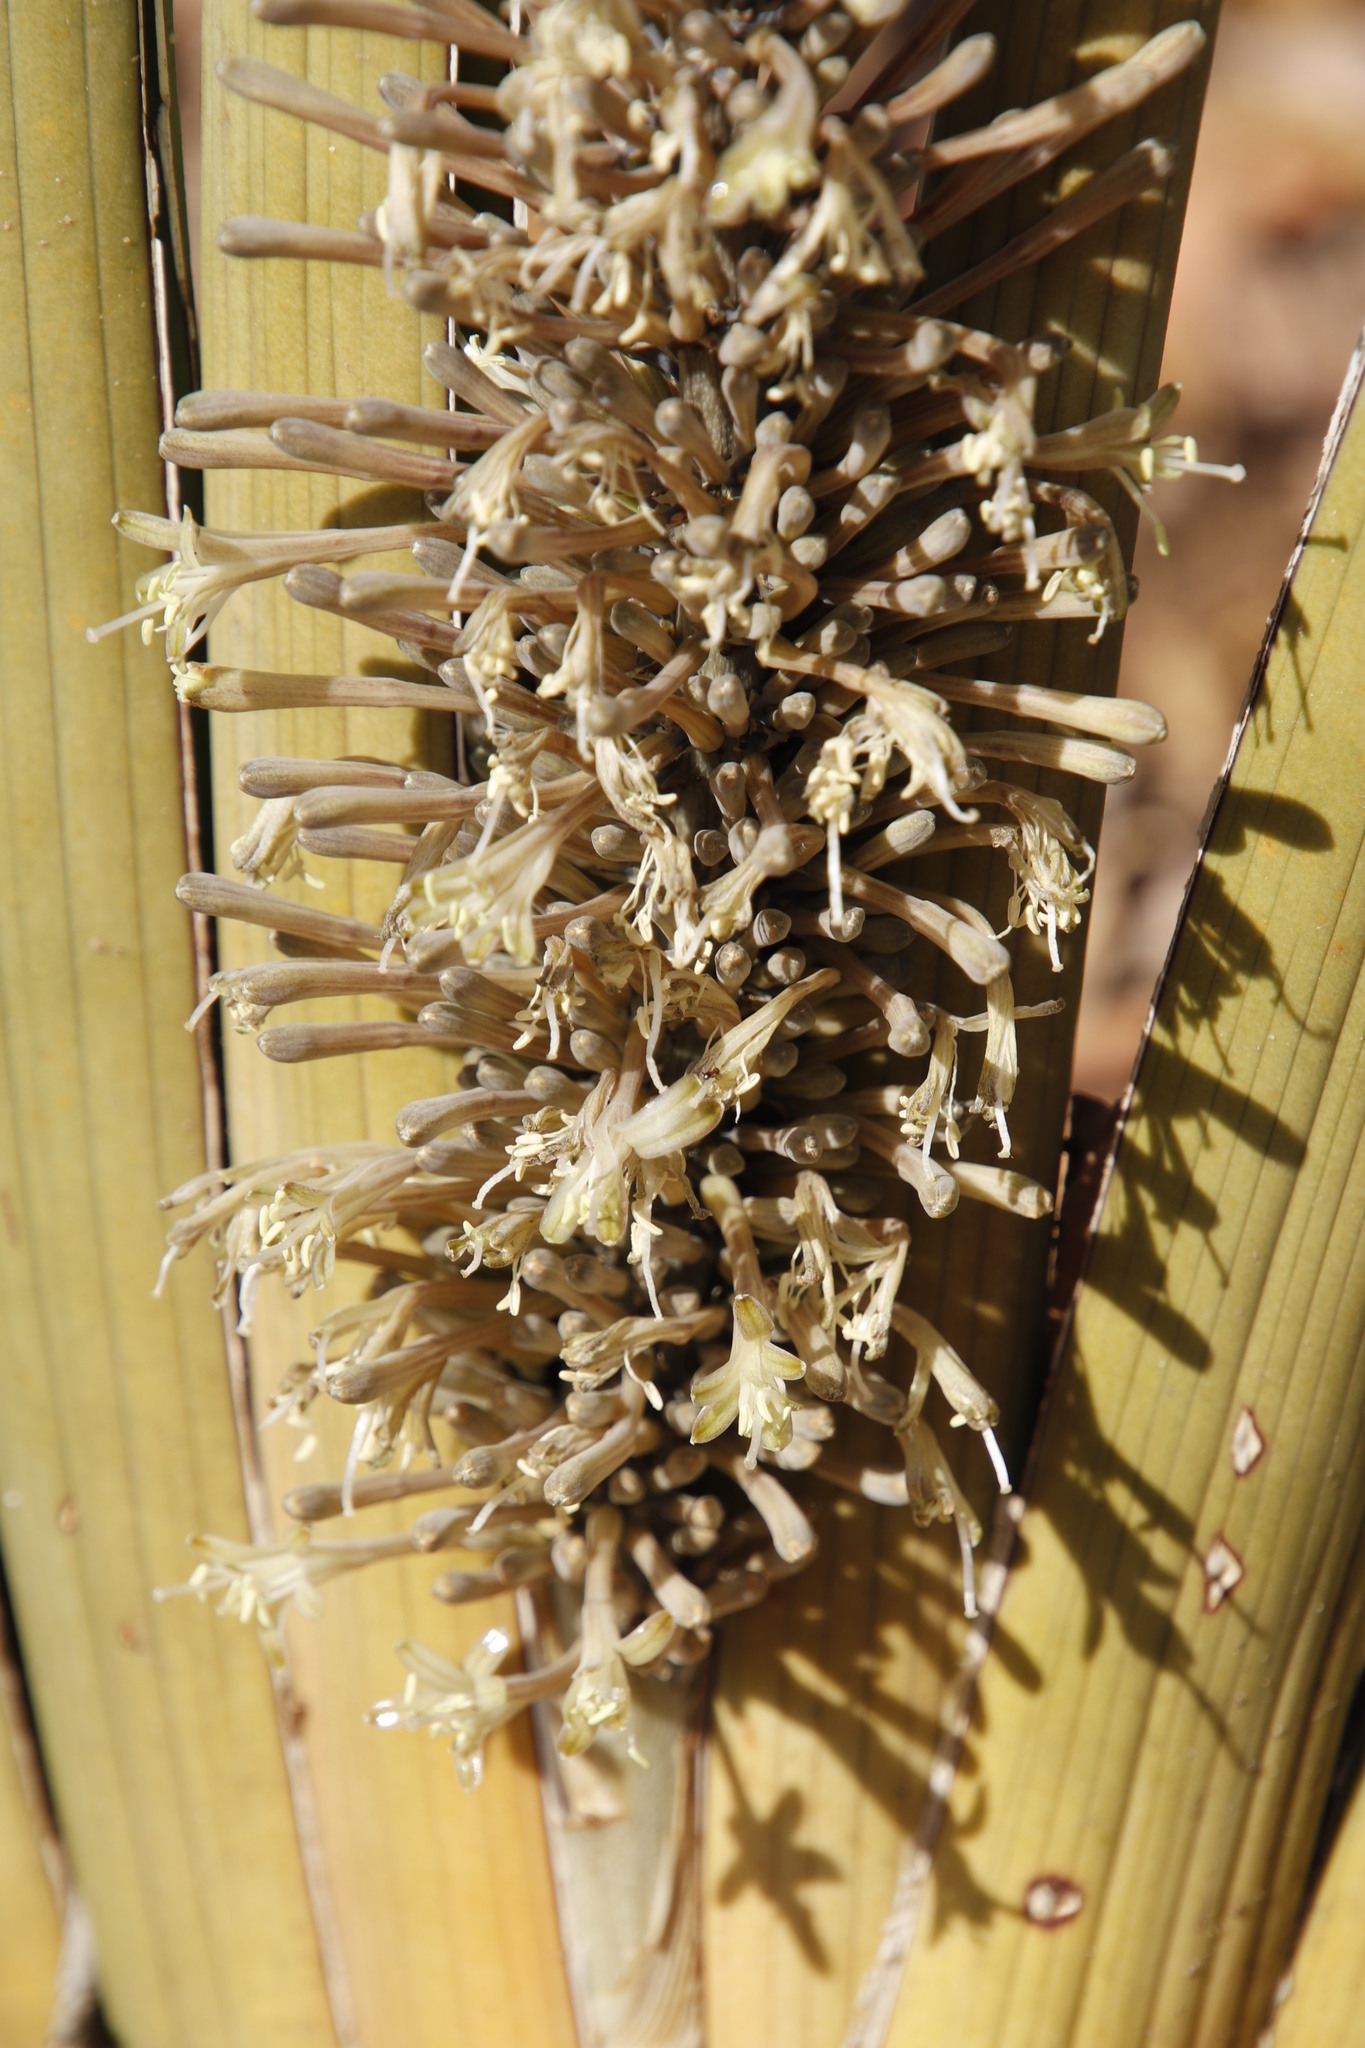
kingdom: Plantae
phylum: Tracheophyta
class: Liliopsida
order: Asparagales
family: Asparagaceae
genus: Dracaena
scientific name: Dracaena pearsonii
